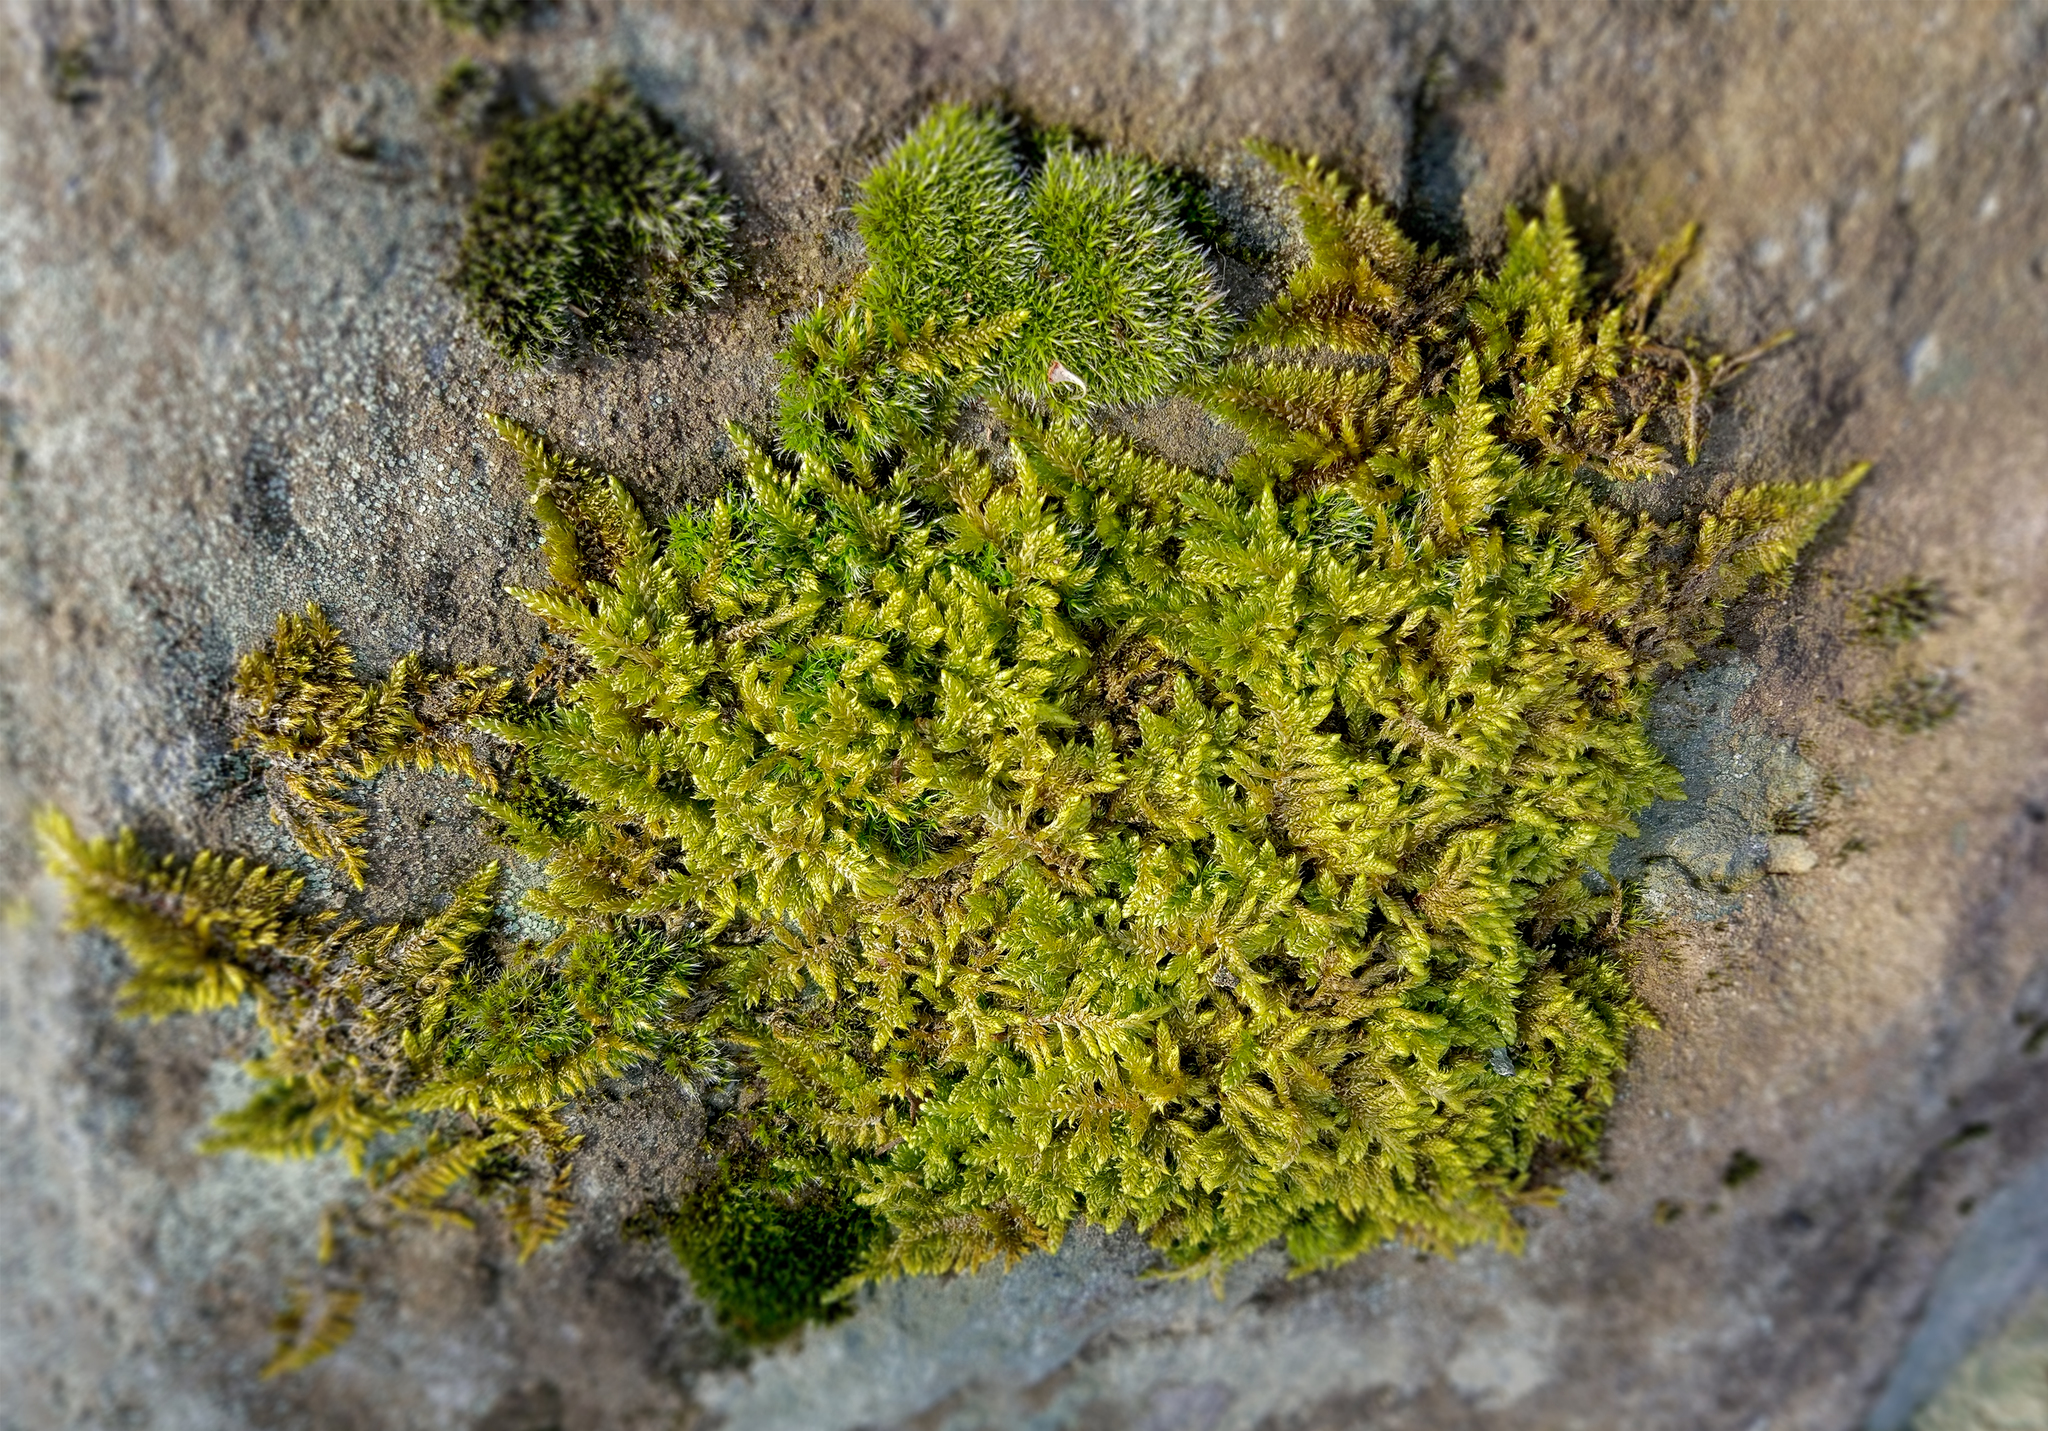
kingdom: Plantae
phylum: Bryophyta
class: Bryopsida
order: Hypnales
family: Hypnaceae
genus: Hypnum
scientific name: Hypnum cupressiforme
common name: Cypress-leaved plait-moss
